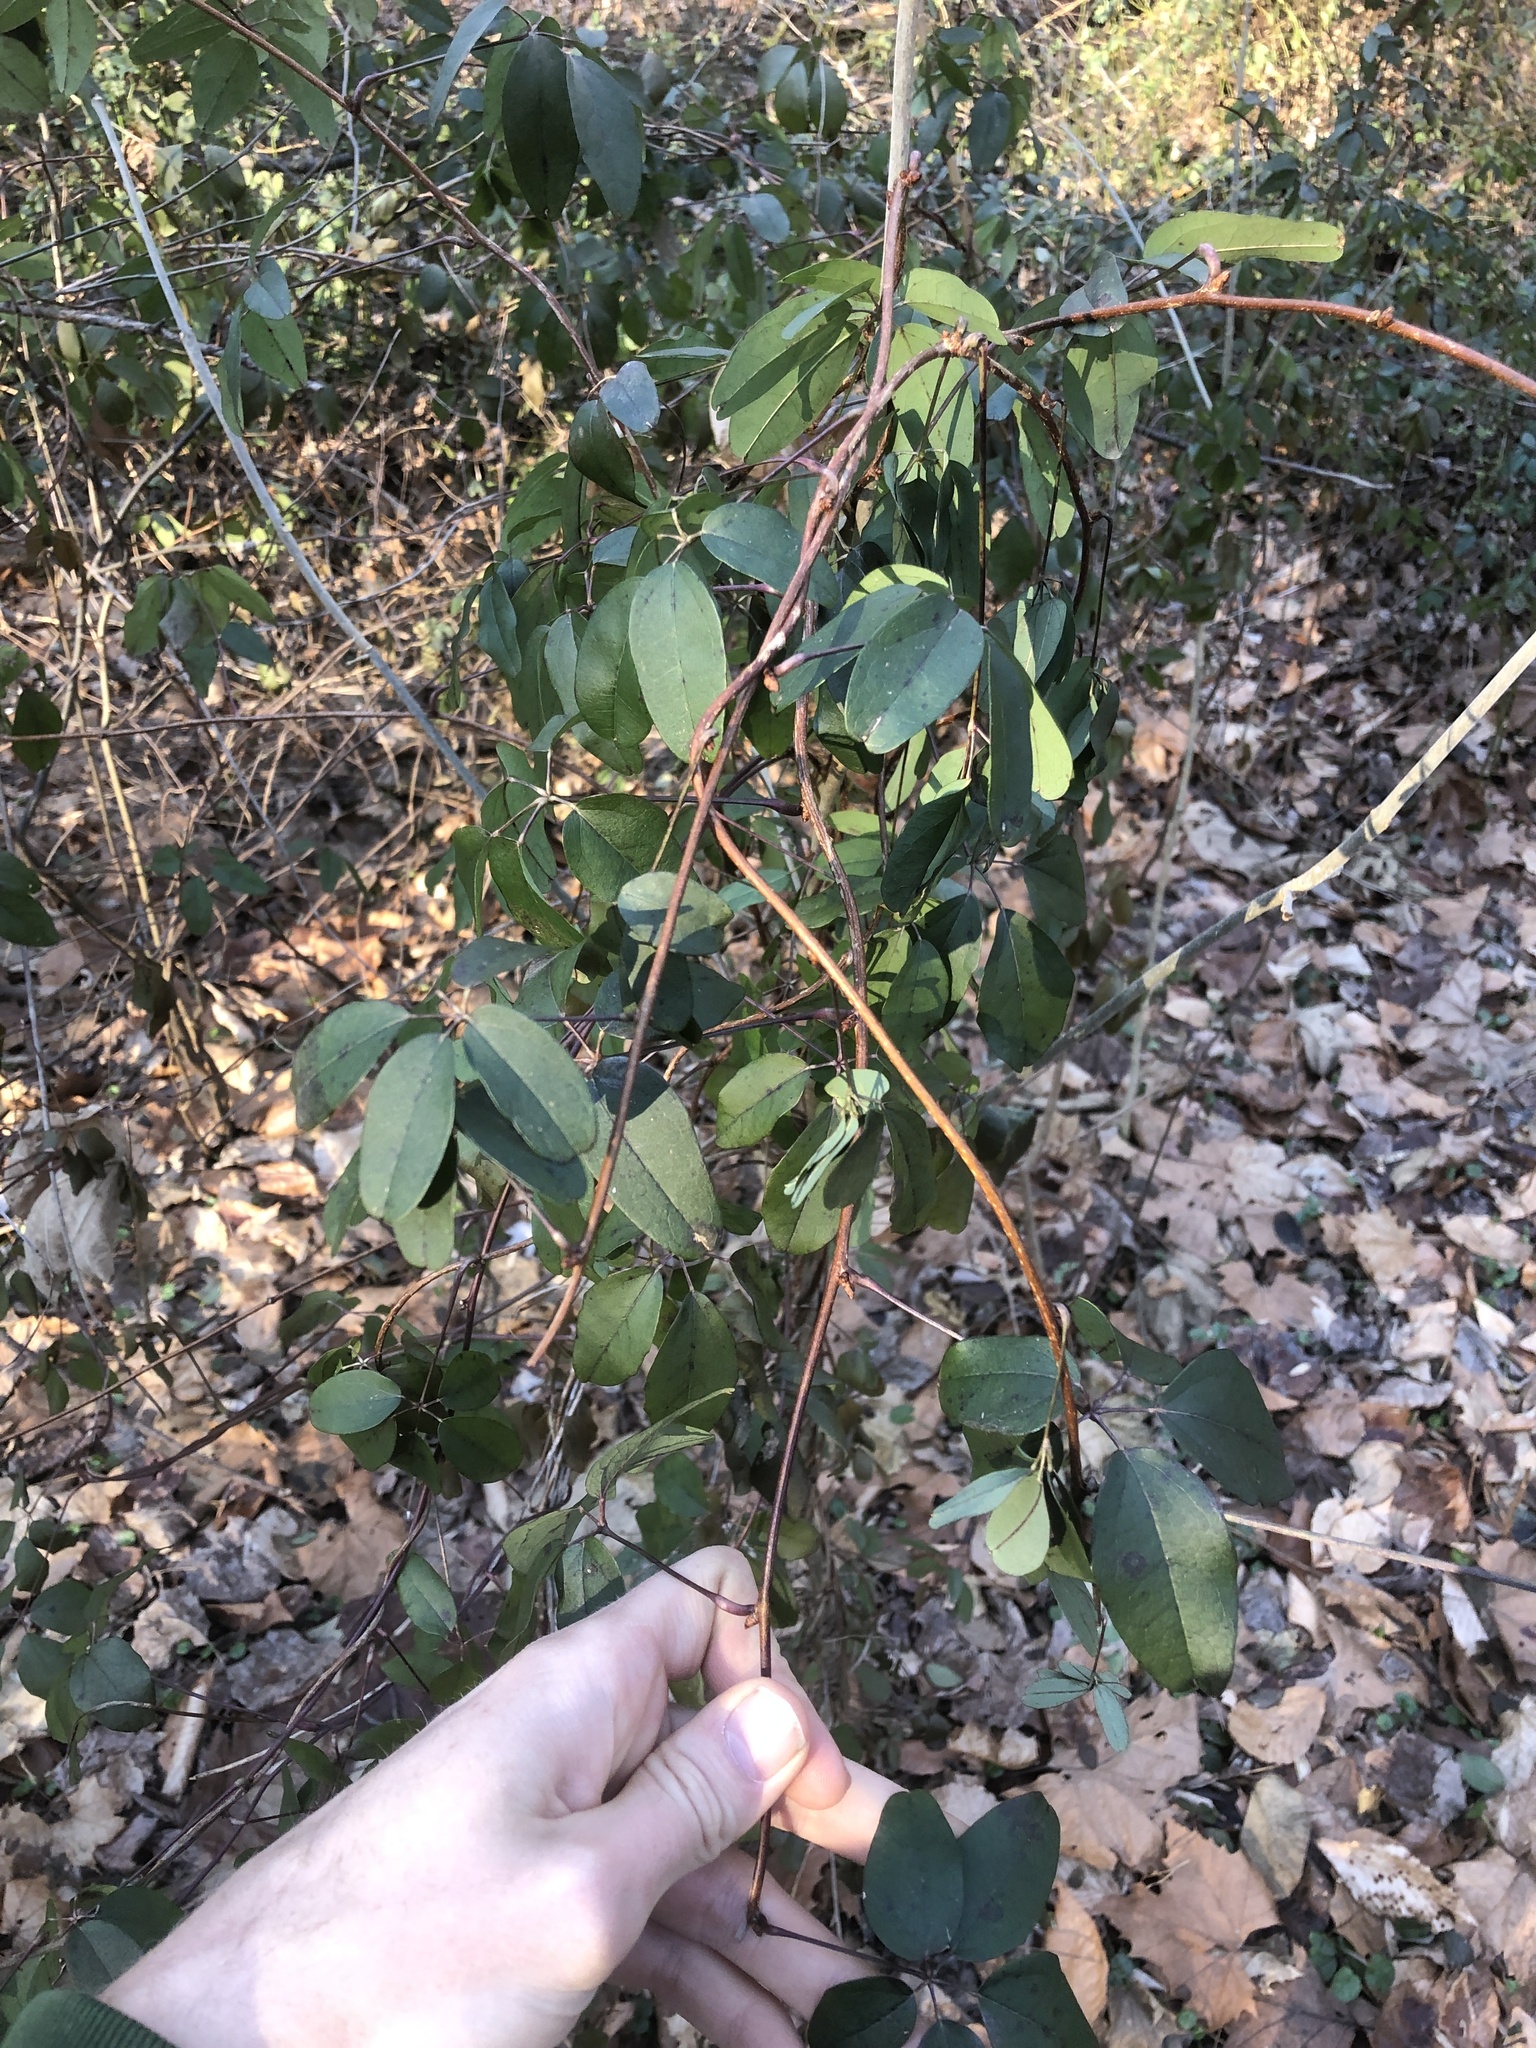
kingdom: Plantae
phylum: Tracheophyta
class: Magnoliopsida
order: Ranunculales
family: Lardizabalaceae
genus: Akebia
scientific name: Akebia quinata
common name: Five-leaf akebia
